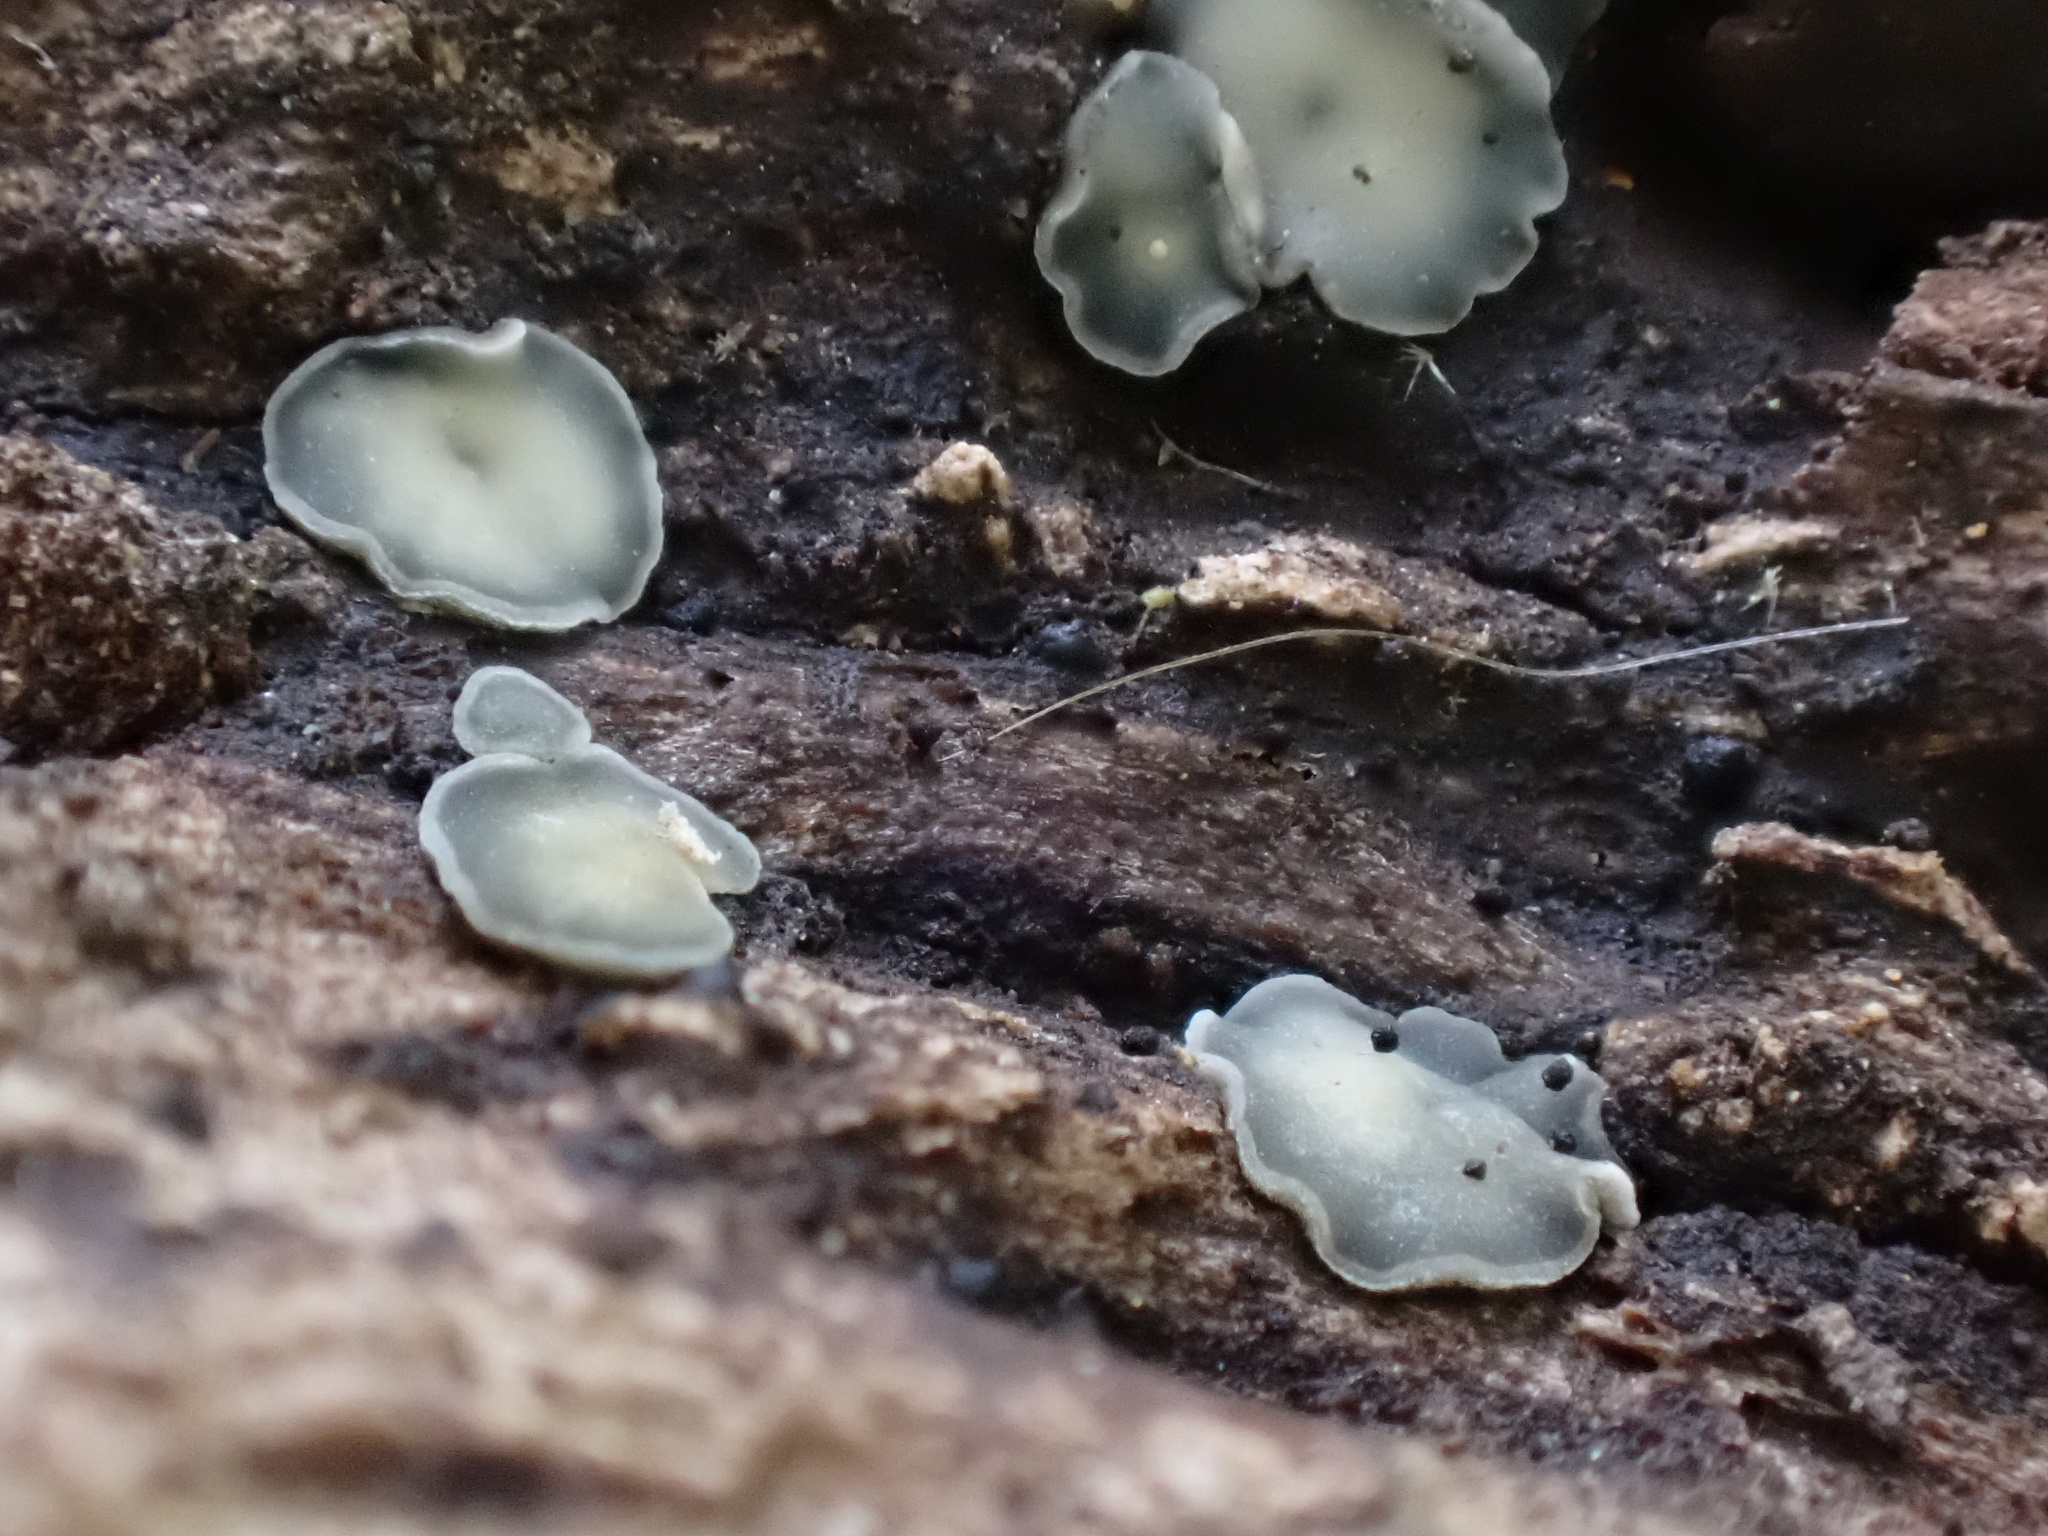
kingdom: Fungi
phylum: Ascomycota
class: Leotiomycetes
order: Helotiales
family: Mollisiaceae
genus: Mollisia
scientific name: Mollisia cinerea
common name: Common grey disco
